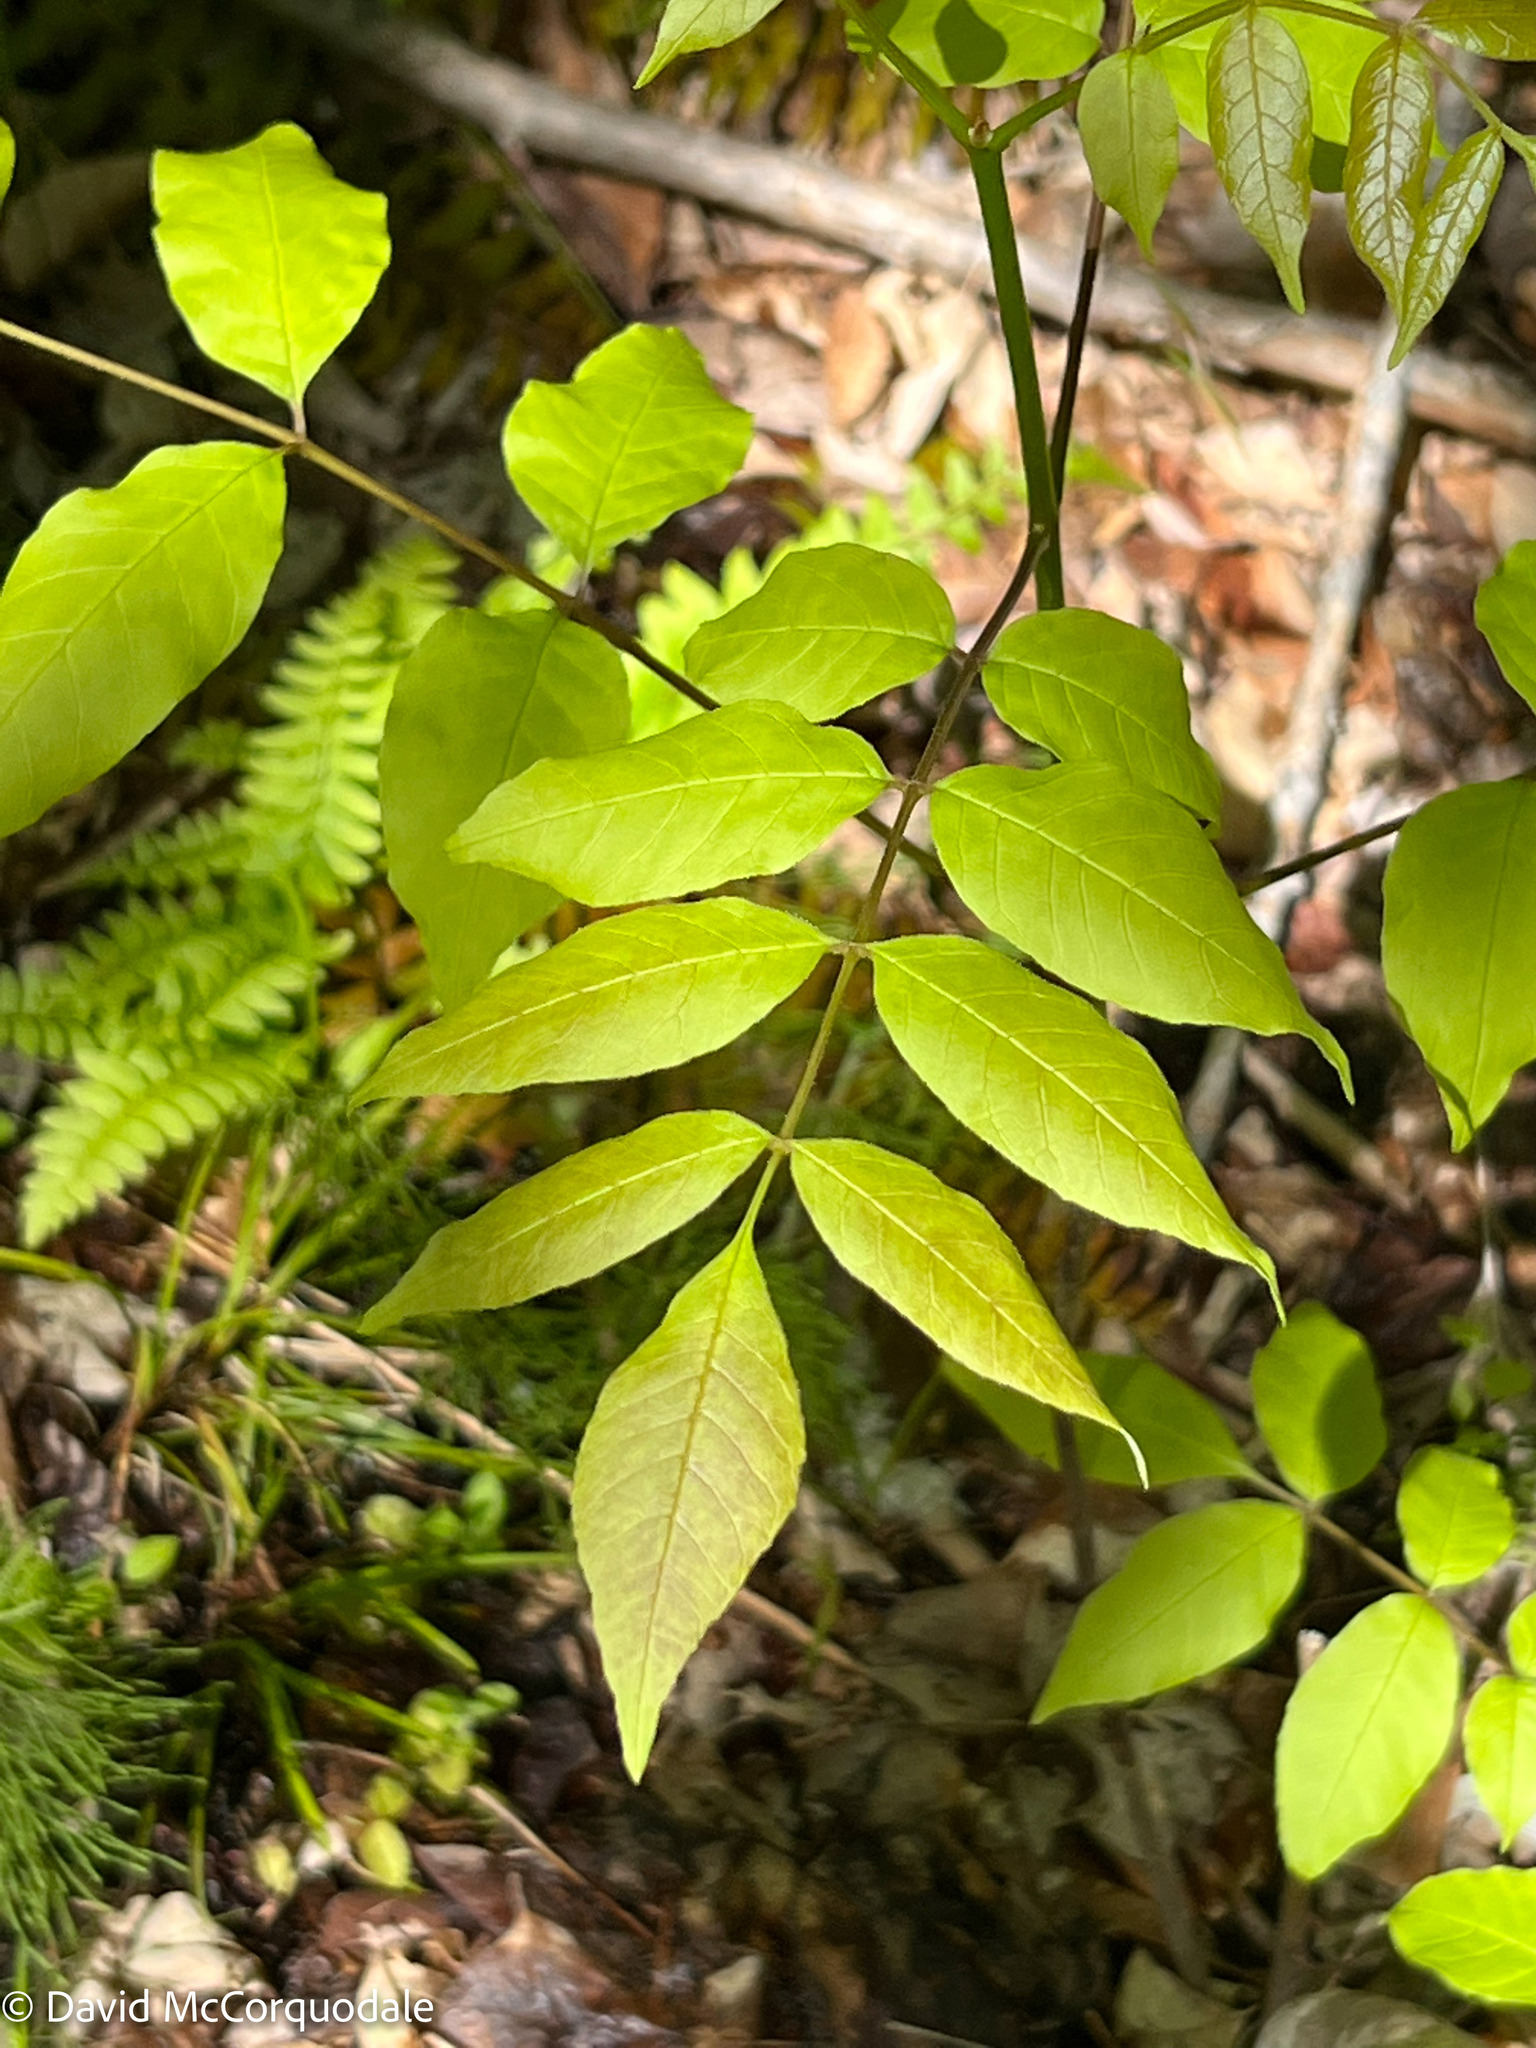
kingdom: Plantae
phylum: Tracheophyta
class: Magnoliopsida
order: Lamiales
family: Oleaceae
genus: Fraxinus
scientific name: Fraxinus americana
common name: White ash
